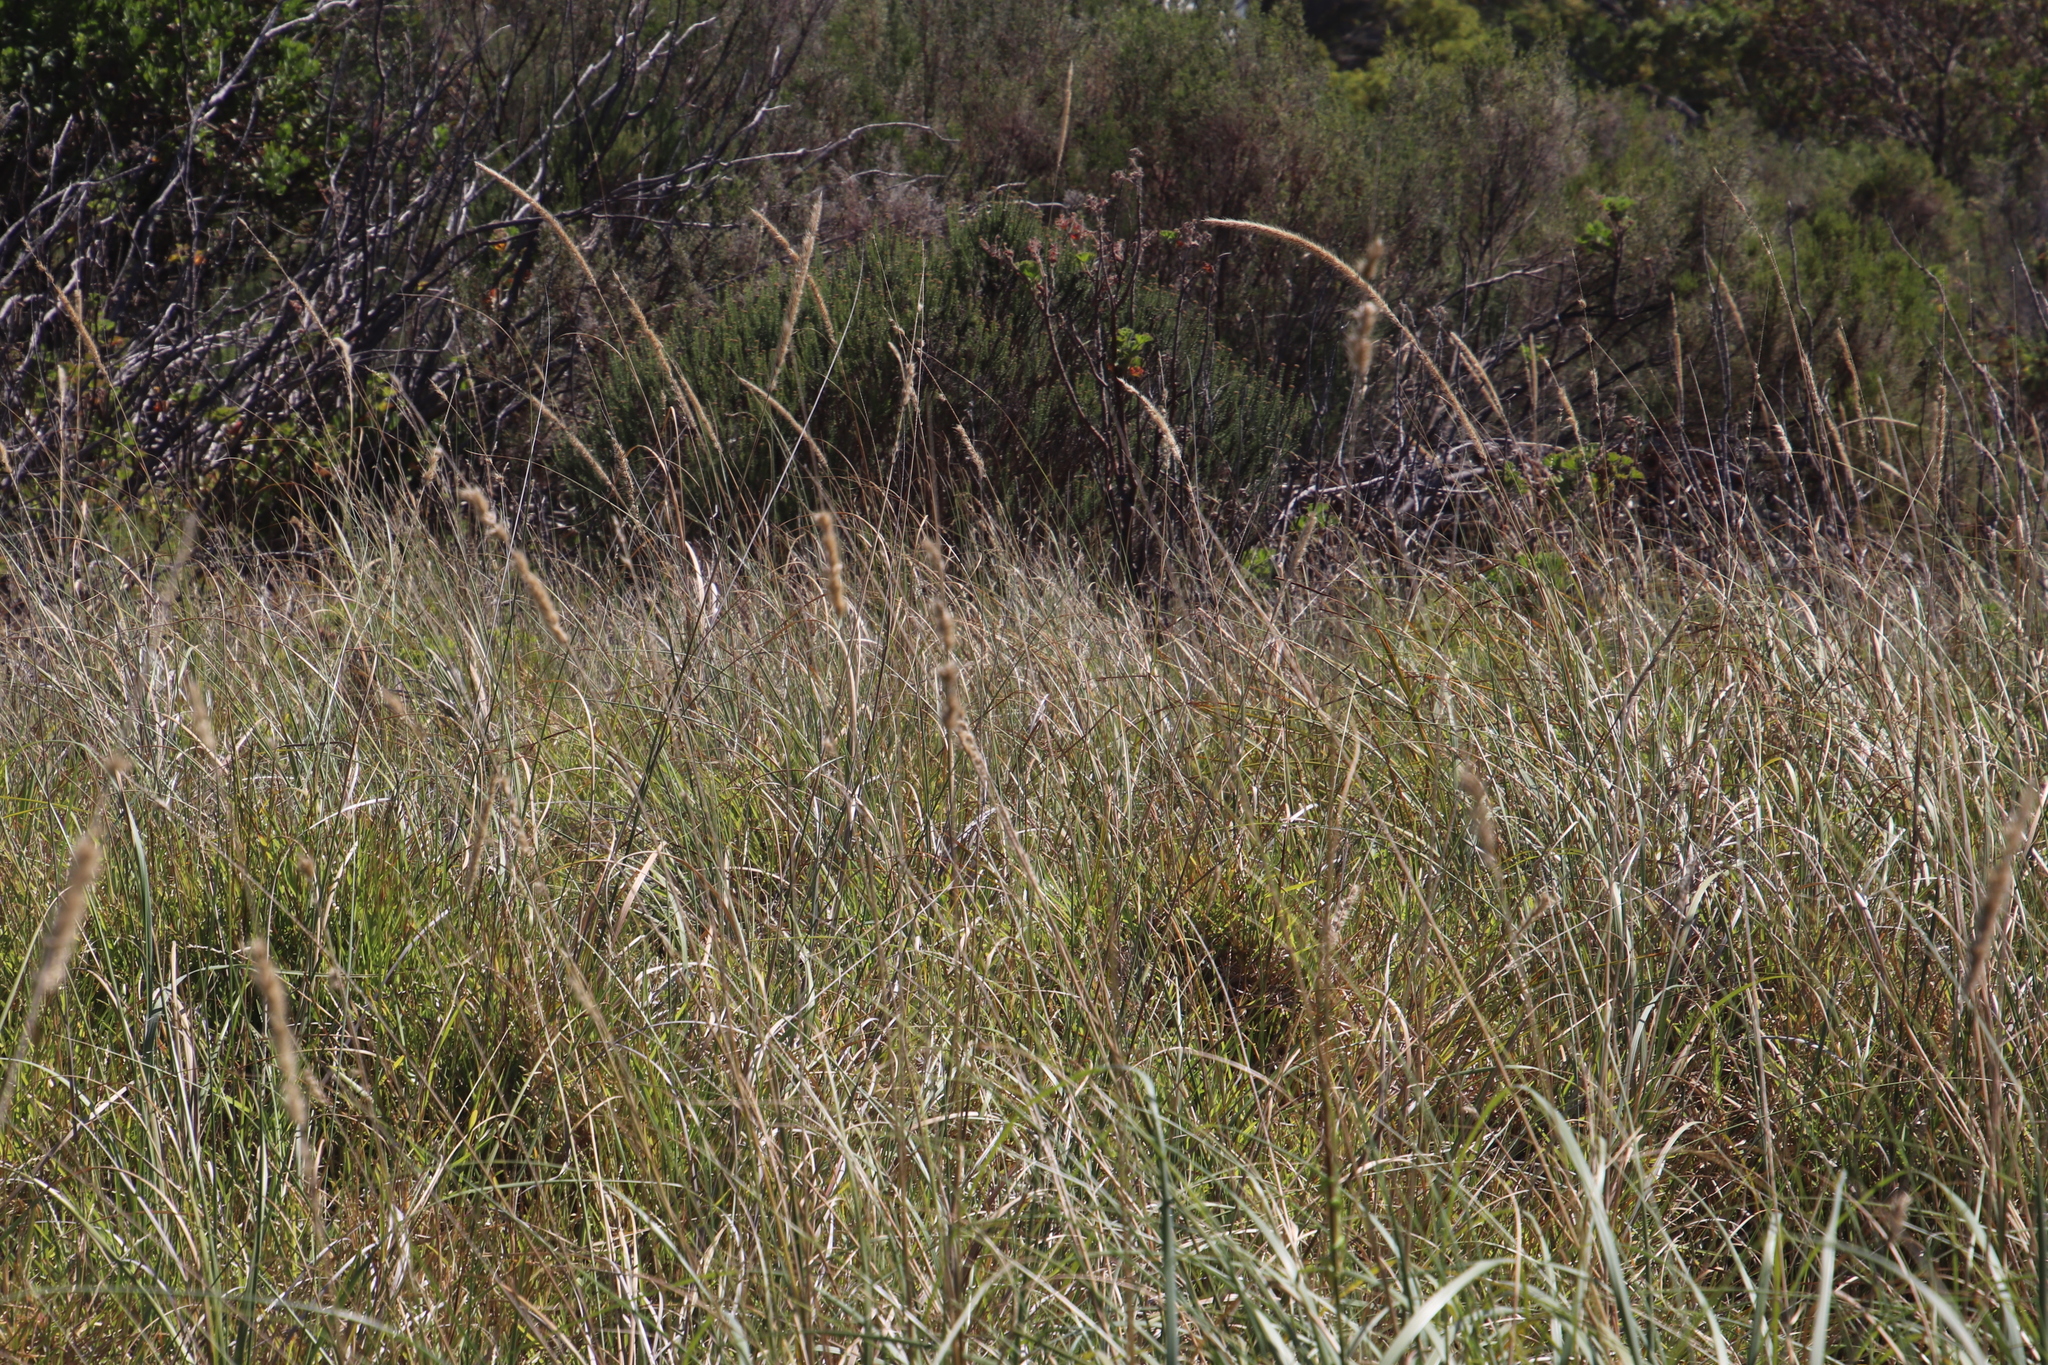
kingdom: Plantae
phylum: Tracheophyta
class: Liliopsida
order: Poales
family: Poaceae
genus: Cenchrus
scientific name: Cenchrus caudatus
